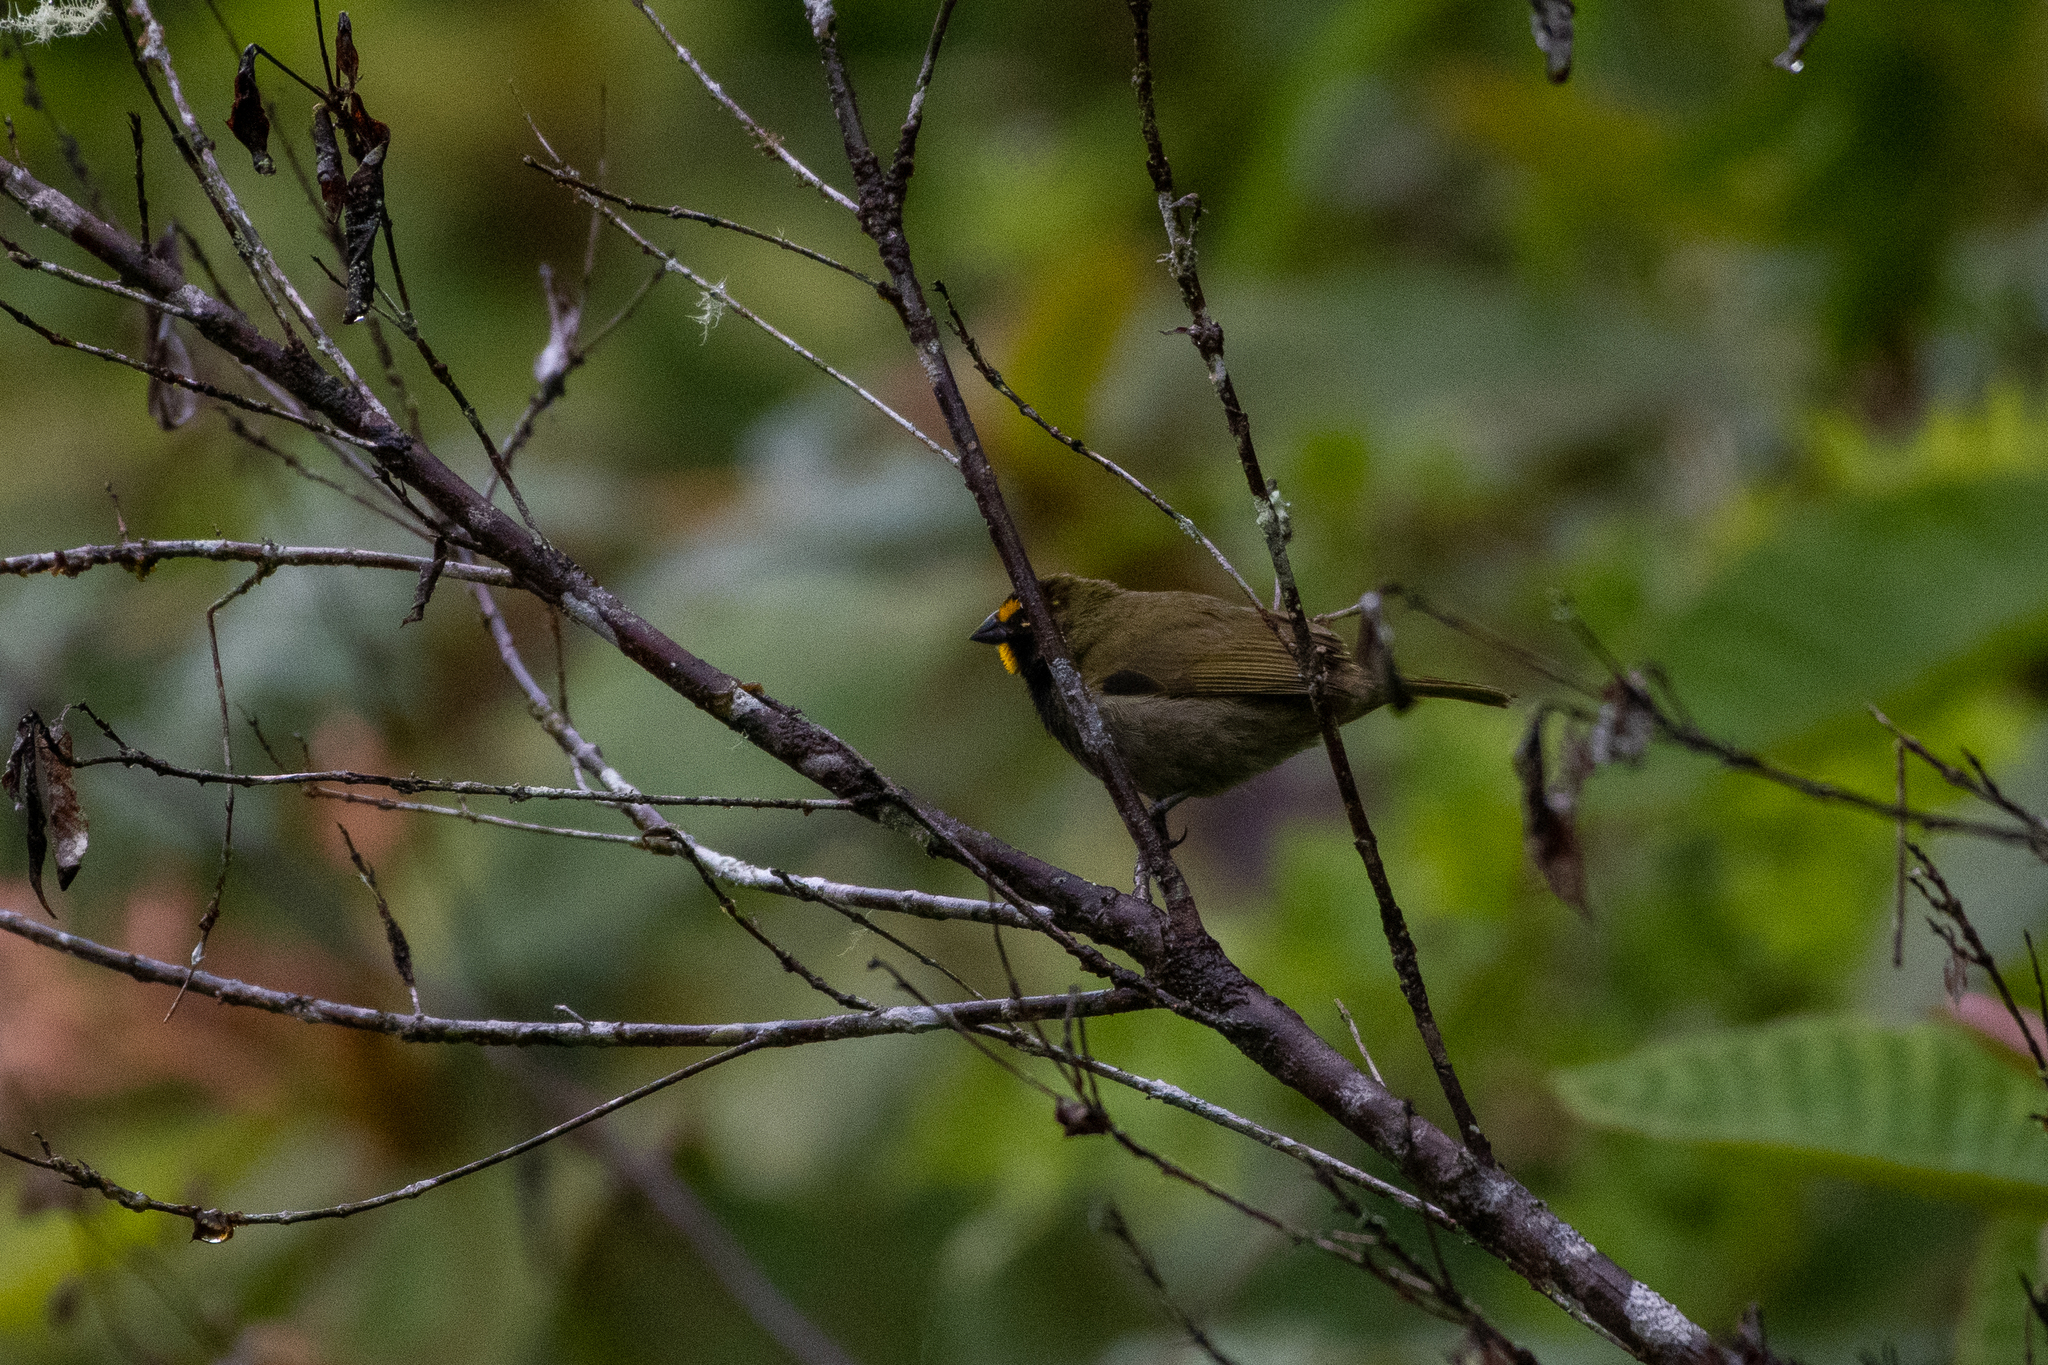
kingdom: Animalia
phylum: Chordata
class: Aves
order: Passeriformes
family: Thraupidae
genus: Tiaris
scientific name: Tiaris olivaceus
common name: Yellow-faced grassquit
